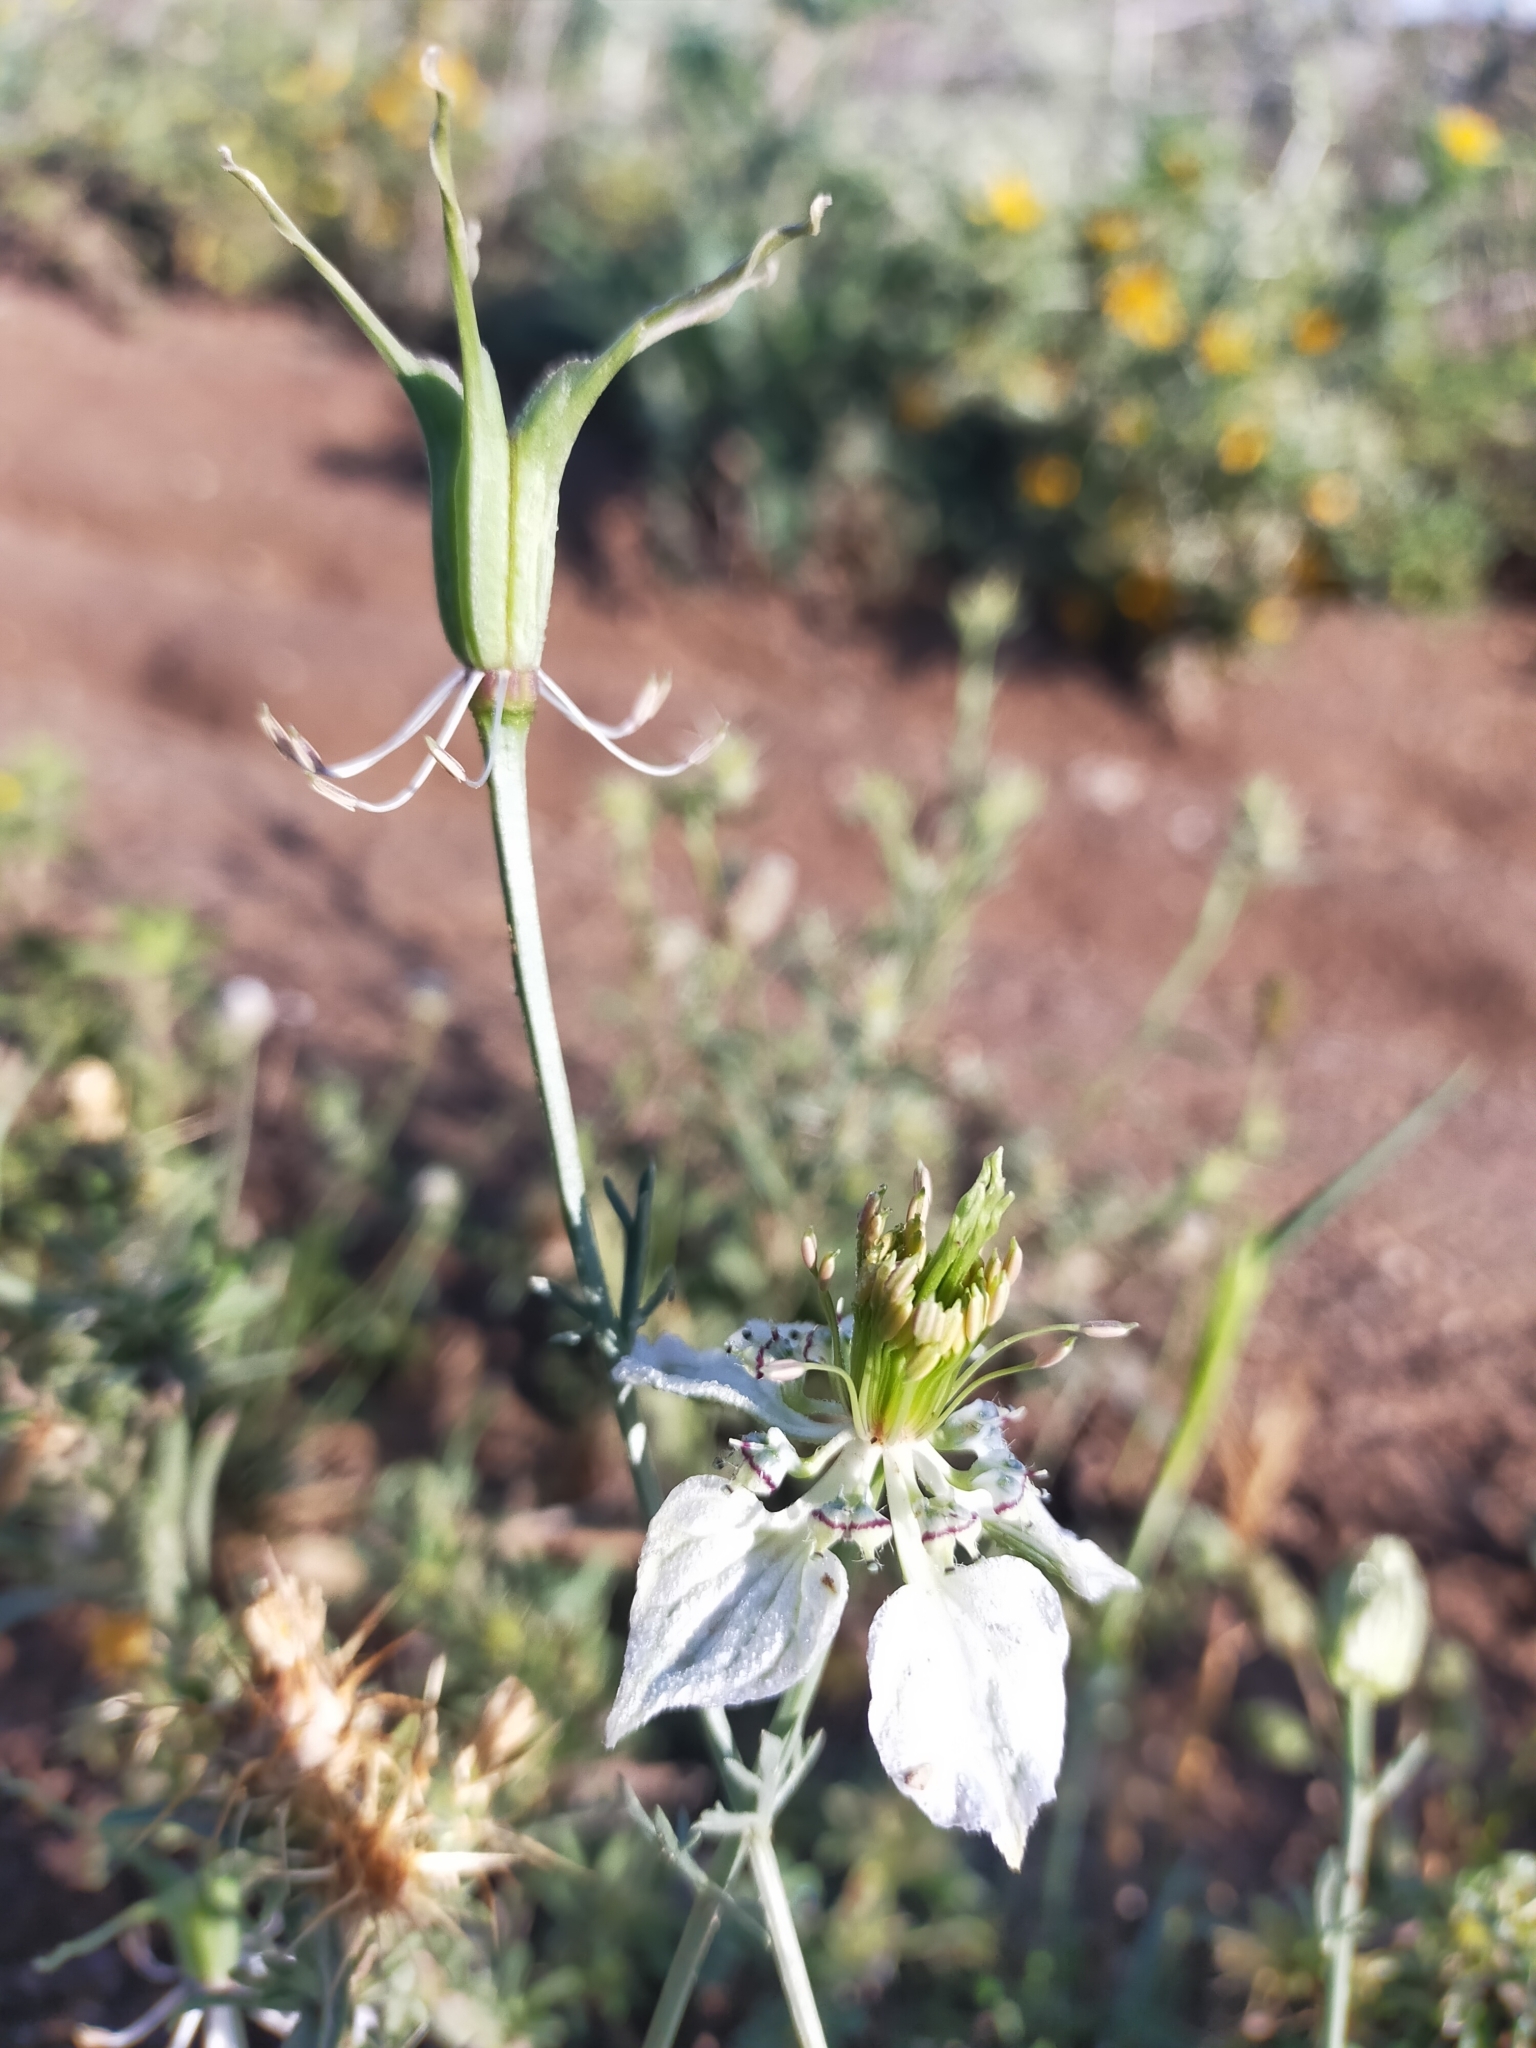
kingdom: Plantae
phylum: Tracheophyta
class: Magnoliopsida
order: Ranunculales
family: Ranunculaceae
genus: Nigella
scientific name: Nigella gallica
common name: Pale fennel-flower
